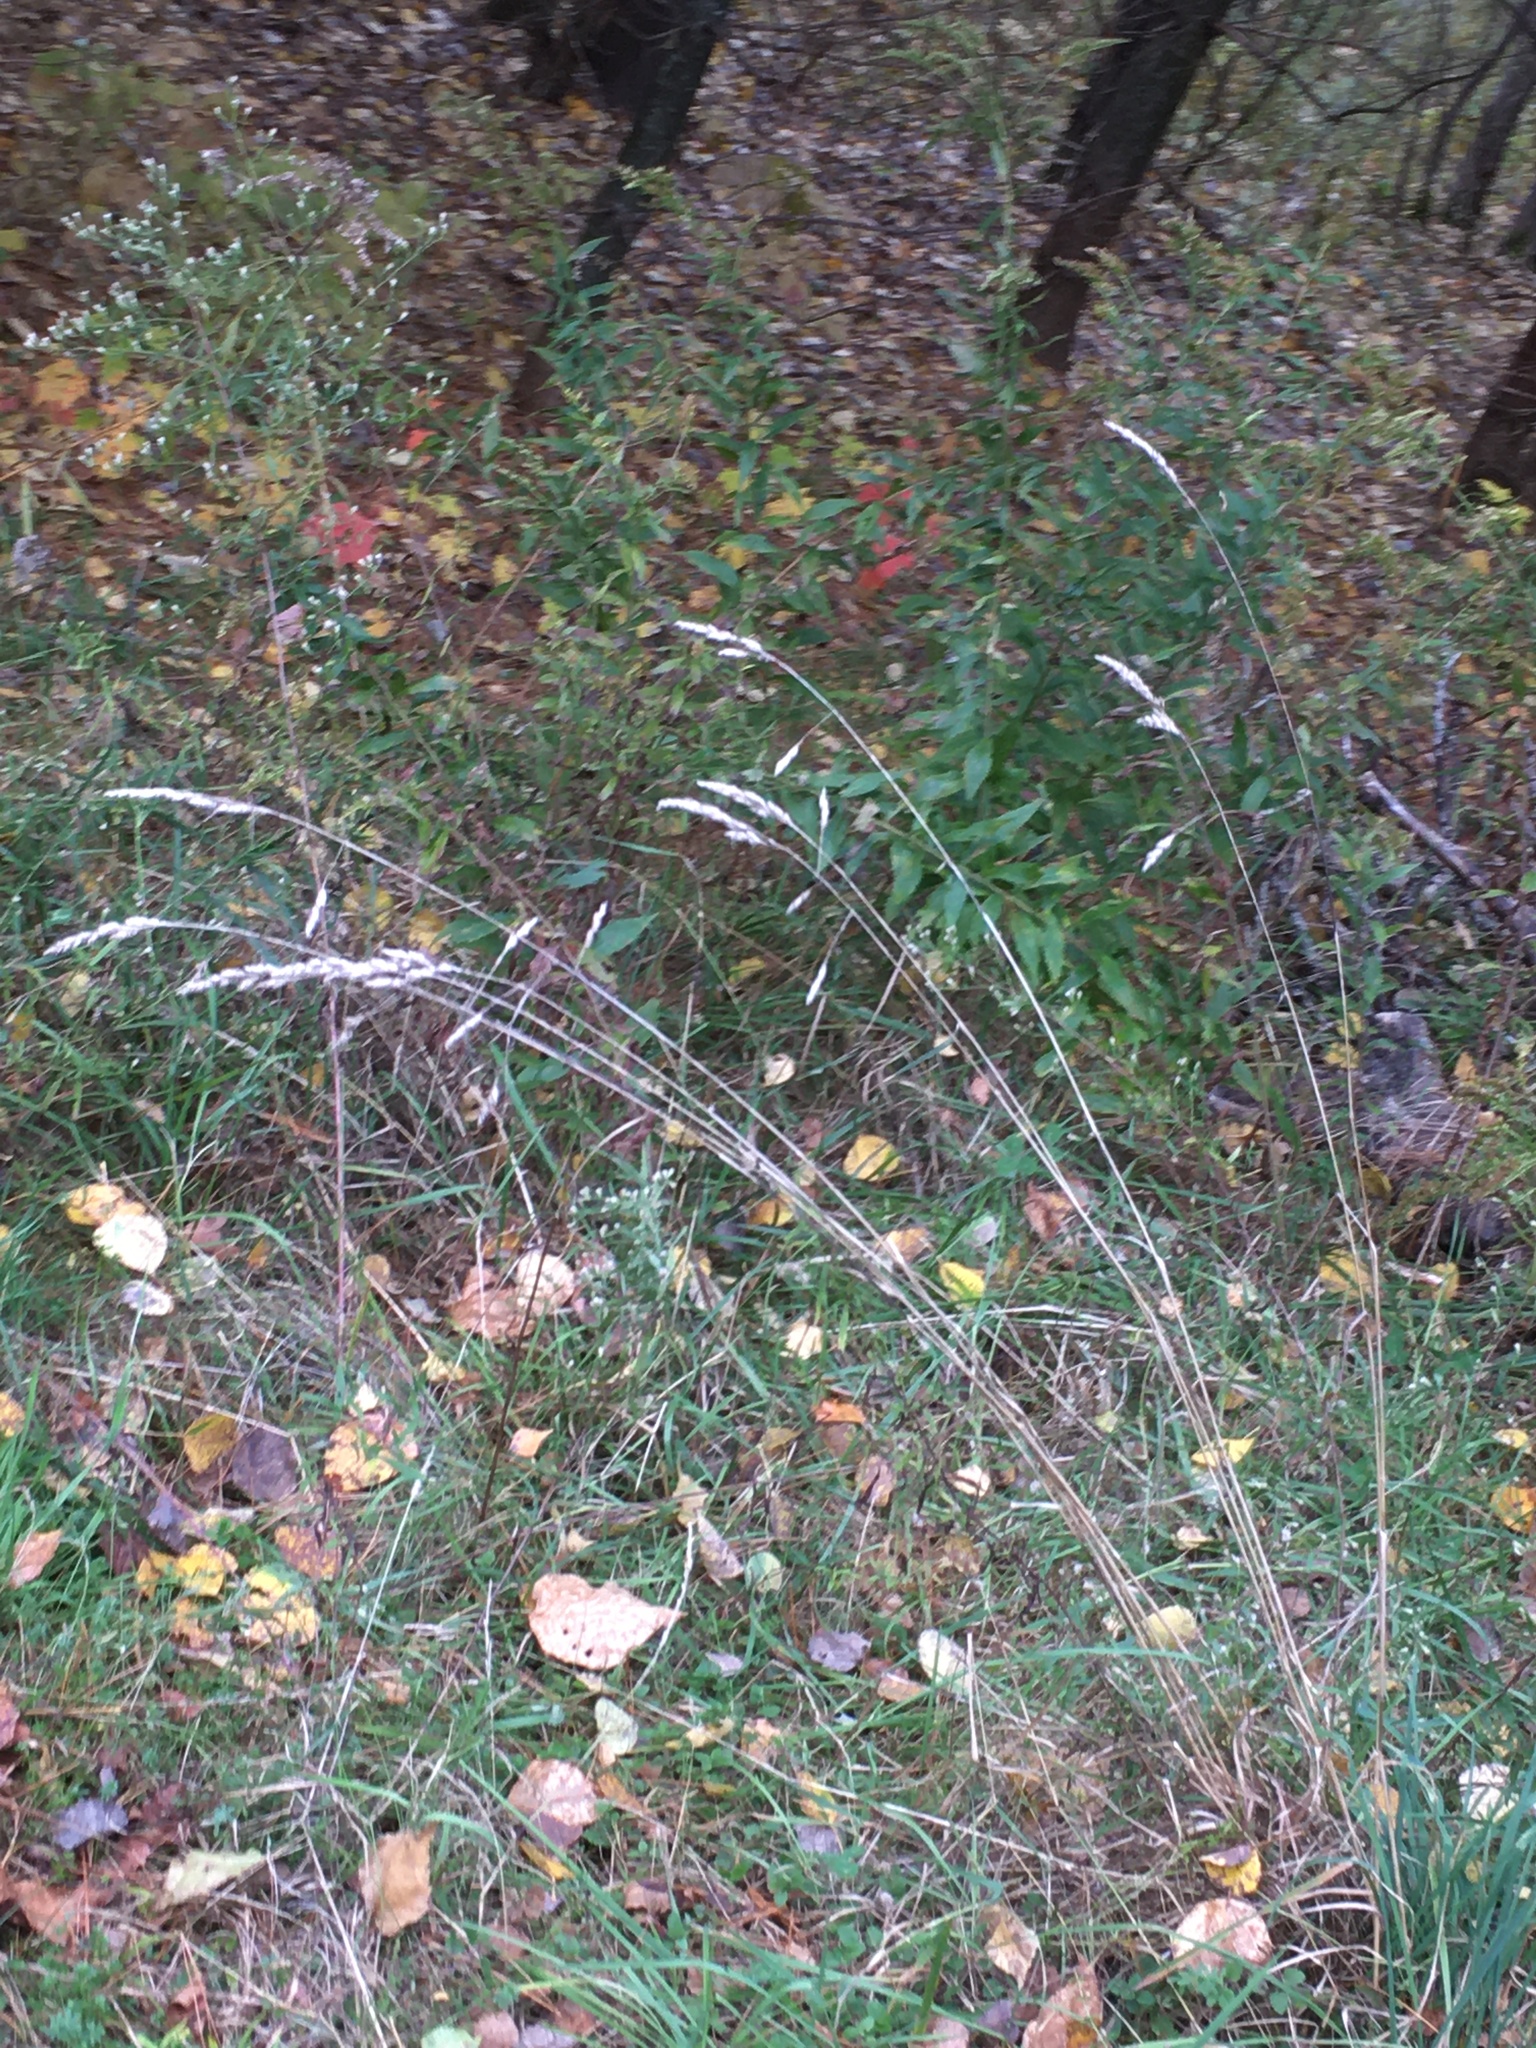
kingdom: Plantae
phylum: Tracheophyta
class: Liliopsida
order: Poales
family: Poaceae
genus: Dactylis
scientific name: Dactylis glomerata
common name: Orchardgrass
